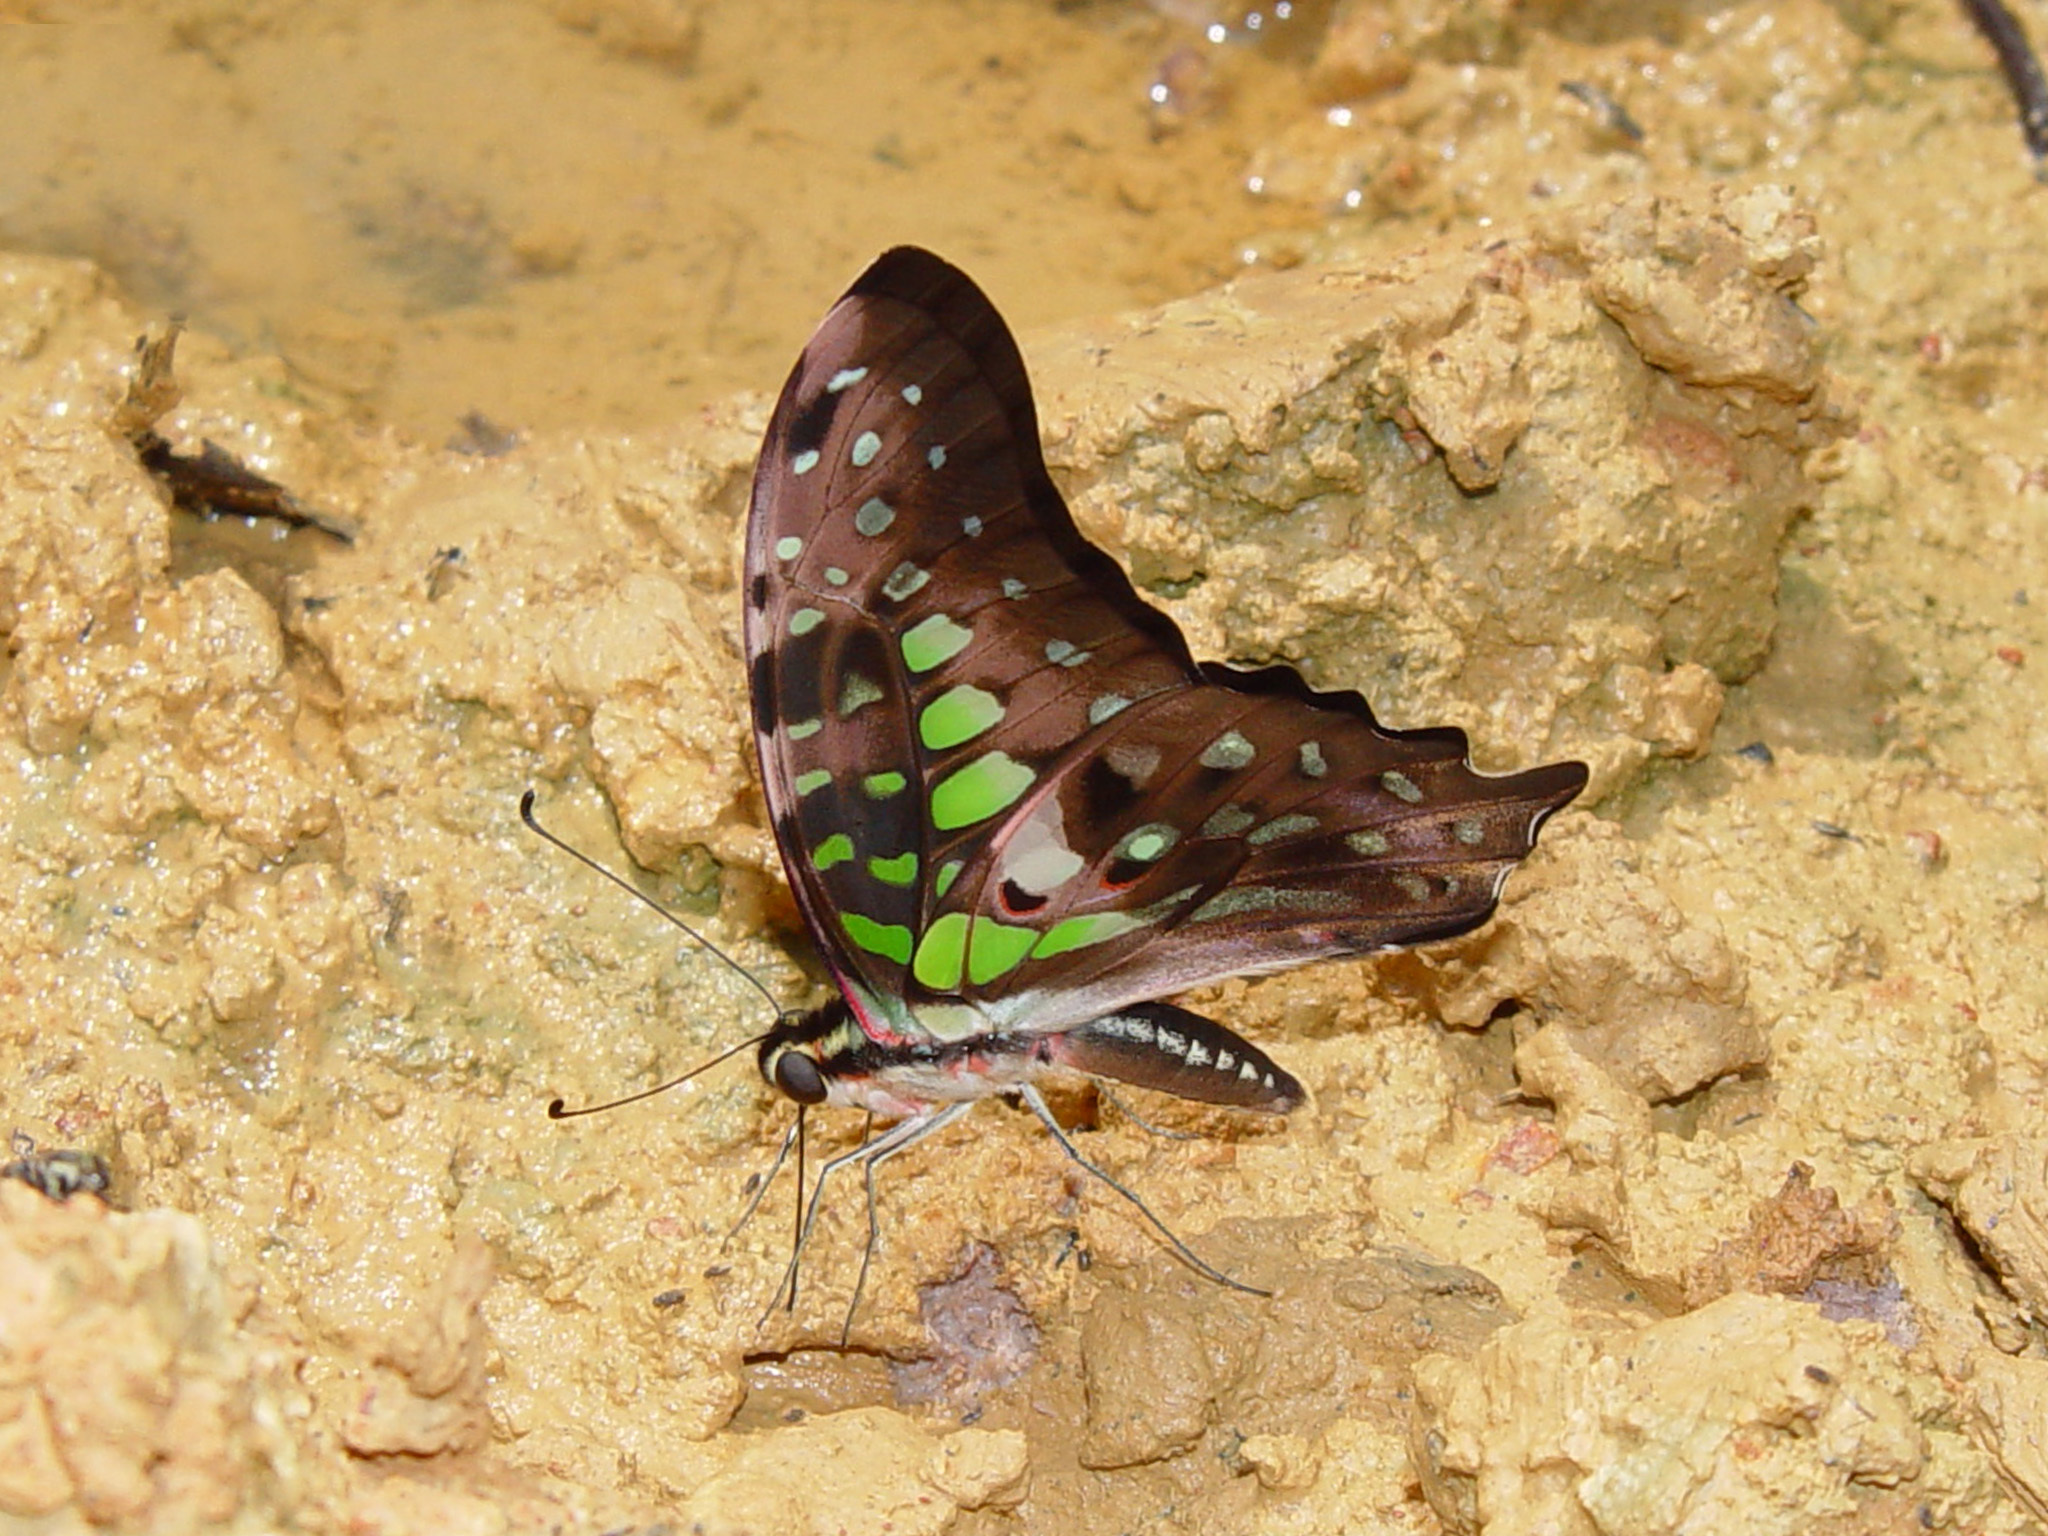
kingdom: Animalia
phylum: Arthropoda
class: Insecta
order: Lepidoptera
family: Papilionidae
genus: Graphium
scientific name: Graphium agamemnon
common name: Tailed jay
